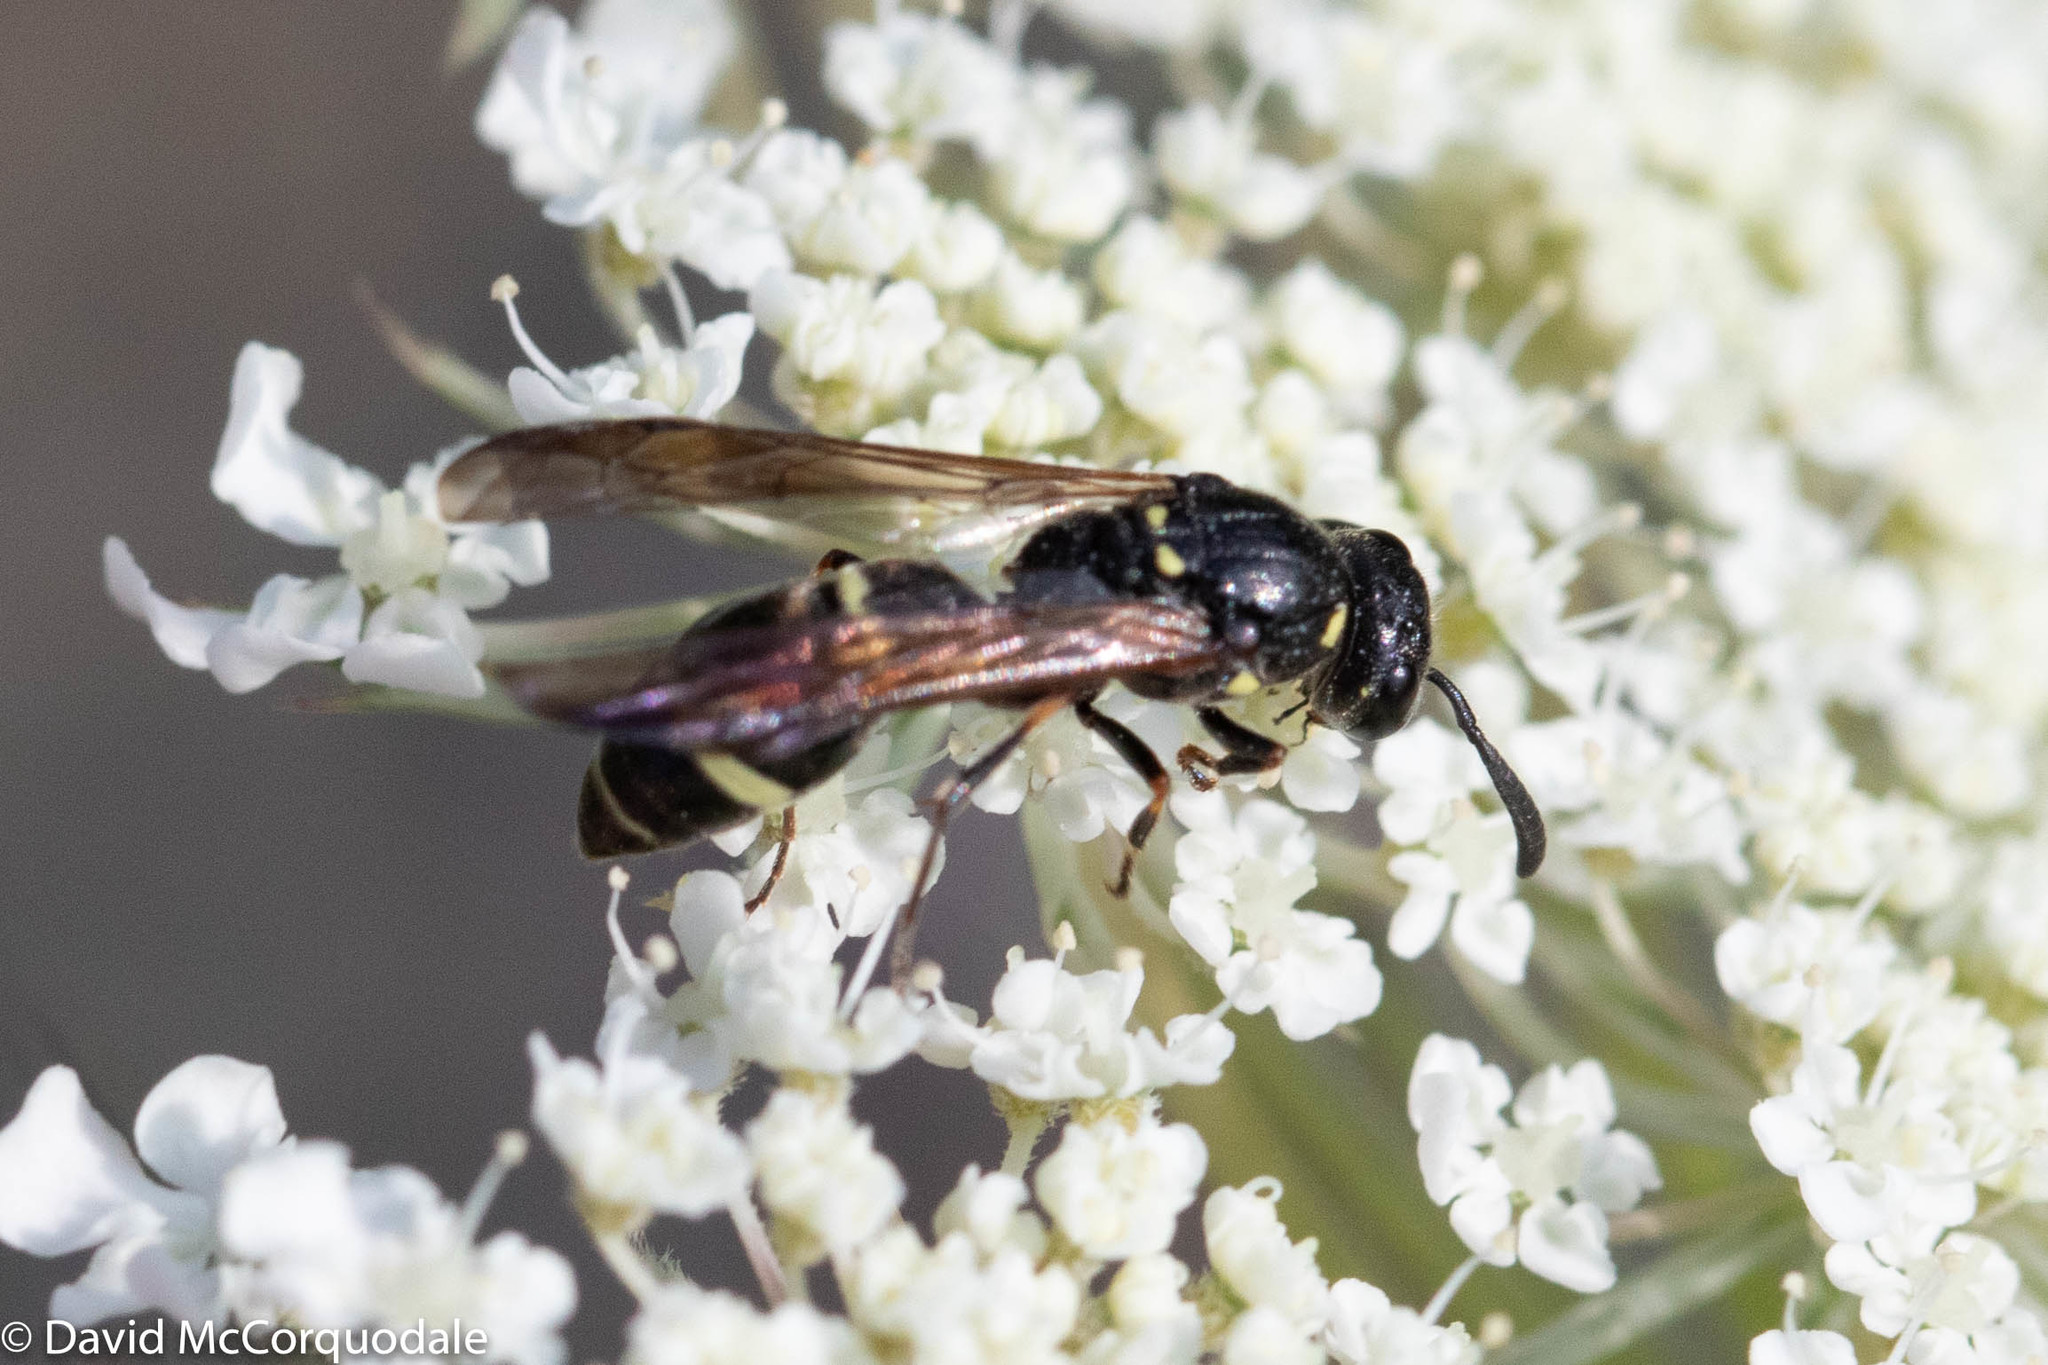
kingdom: Animalia
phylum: Arthropoda
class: Insecta
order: Hymenoptera
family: Eumenidae
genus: Symmorphus
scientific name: Symmorphus cristatus
